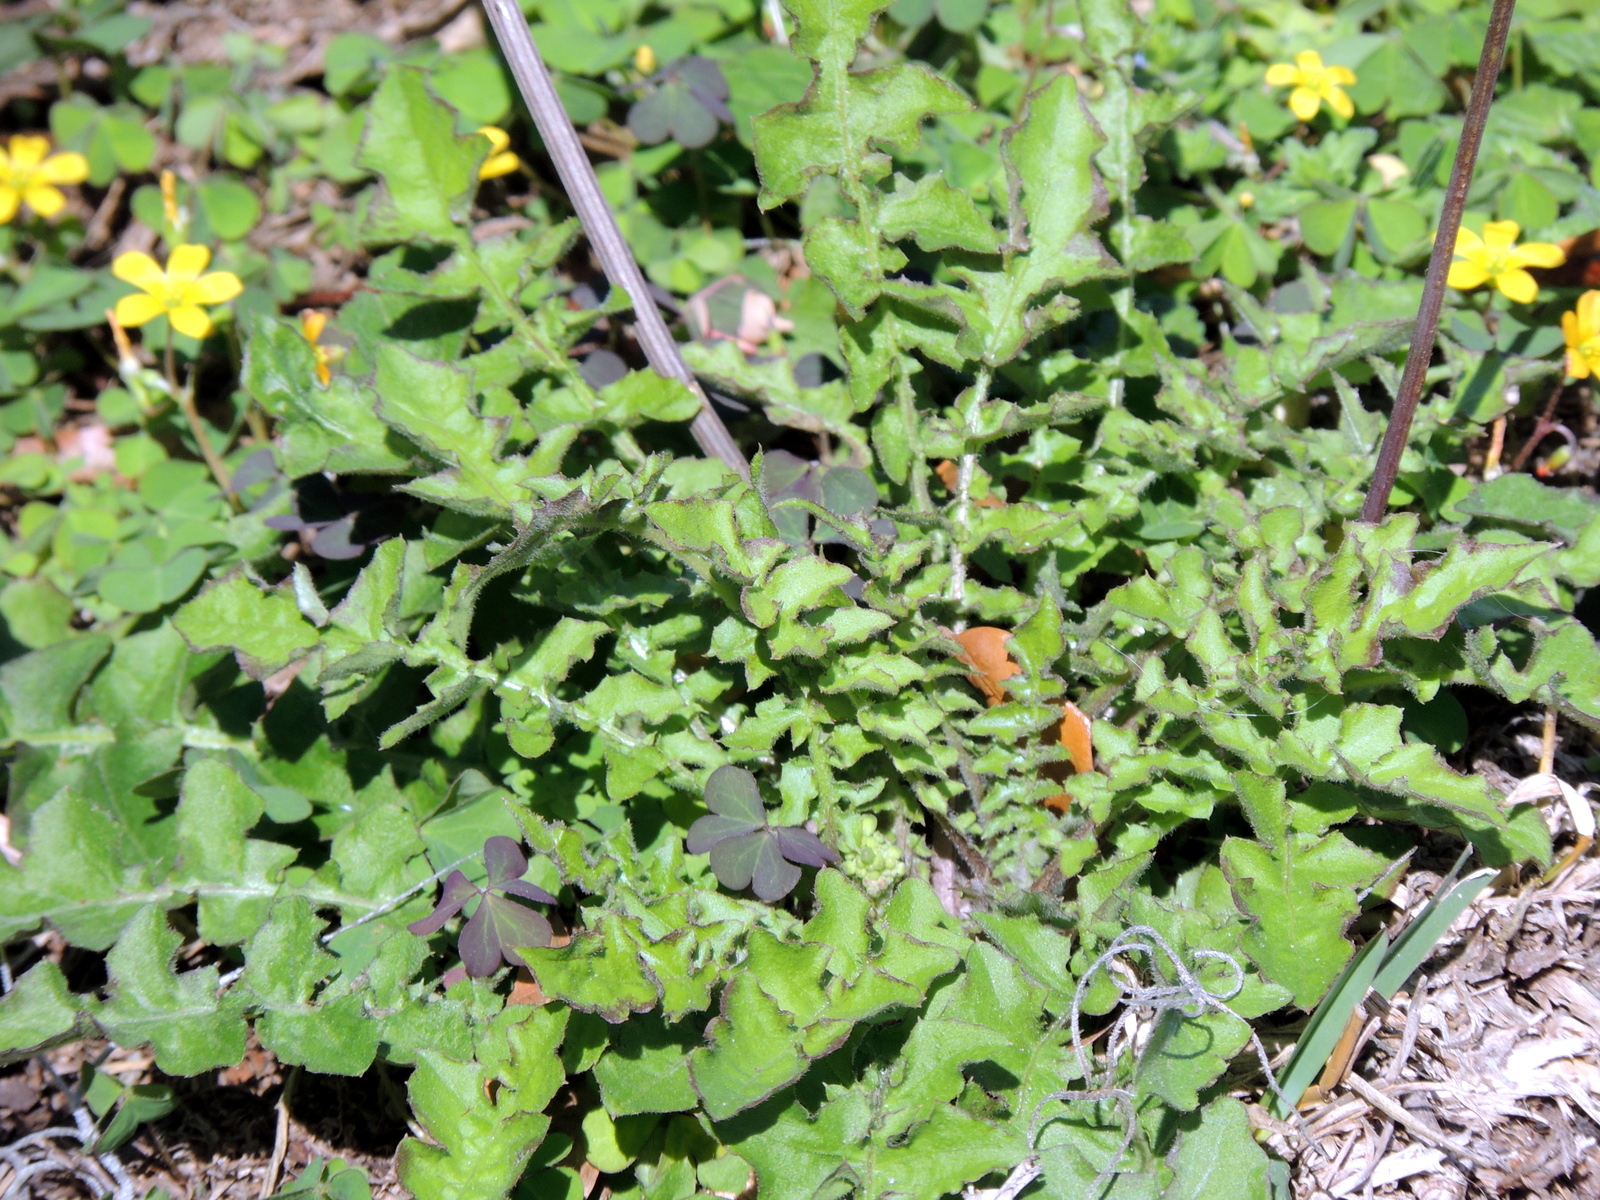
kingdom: Plantae
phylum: Tracheophyta
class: Magnoliopsida
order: Asterales
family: Asteraceae
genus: Youngia
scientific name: Youngia japonica
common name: Oriental false hawksbeard
